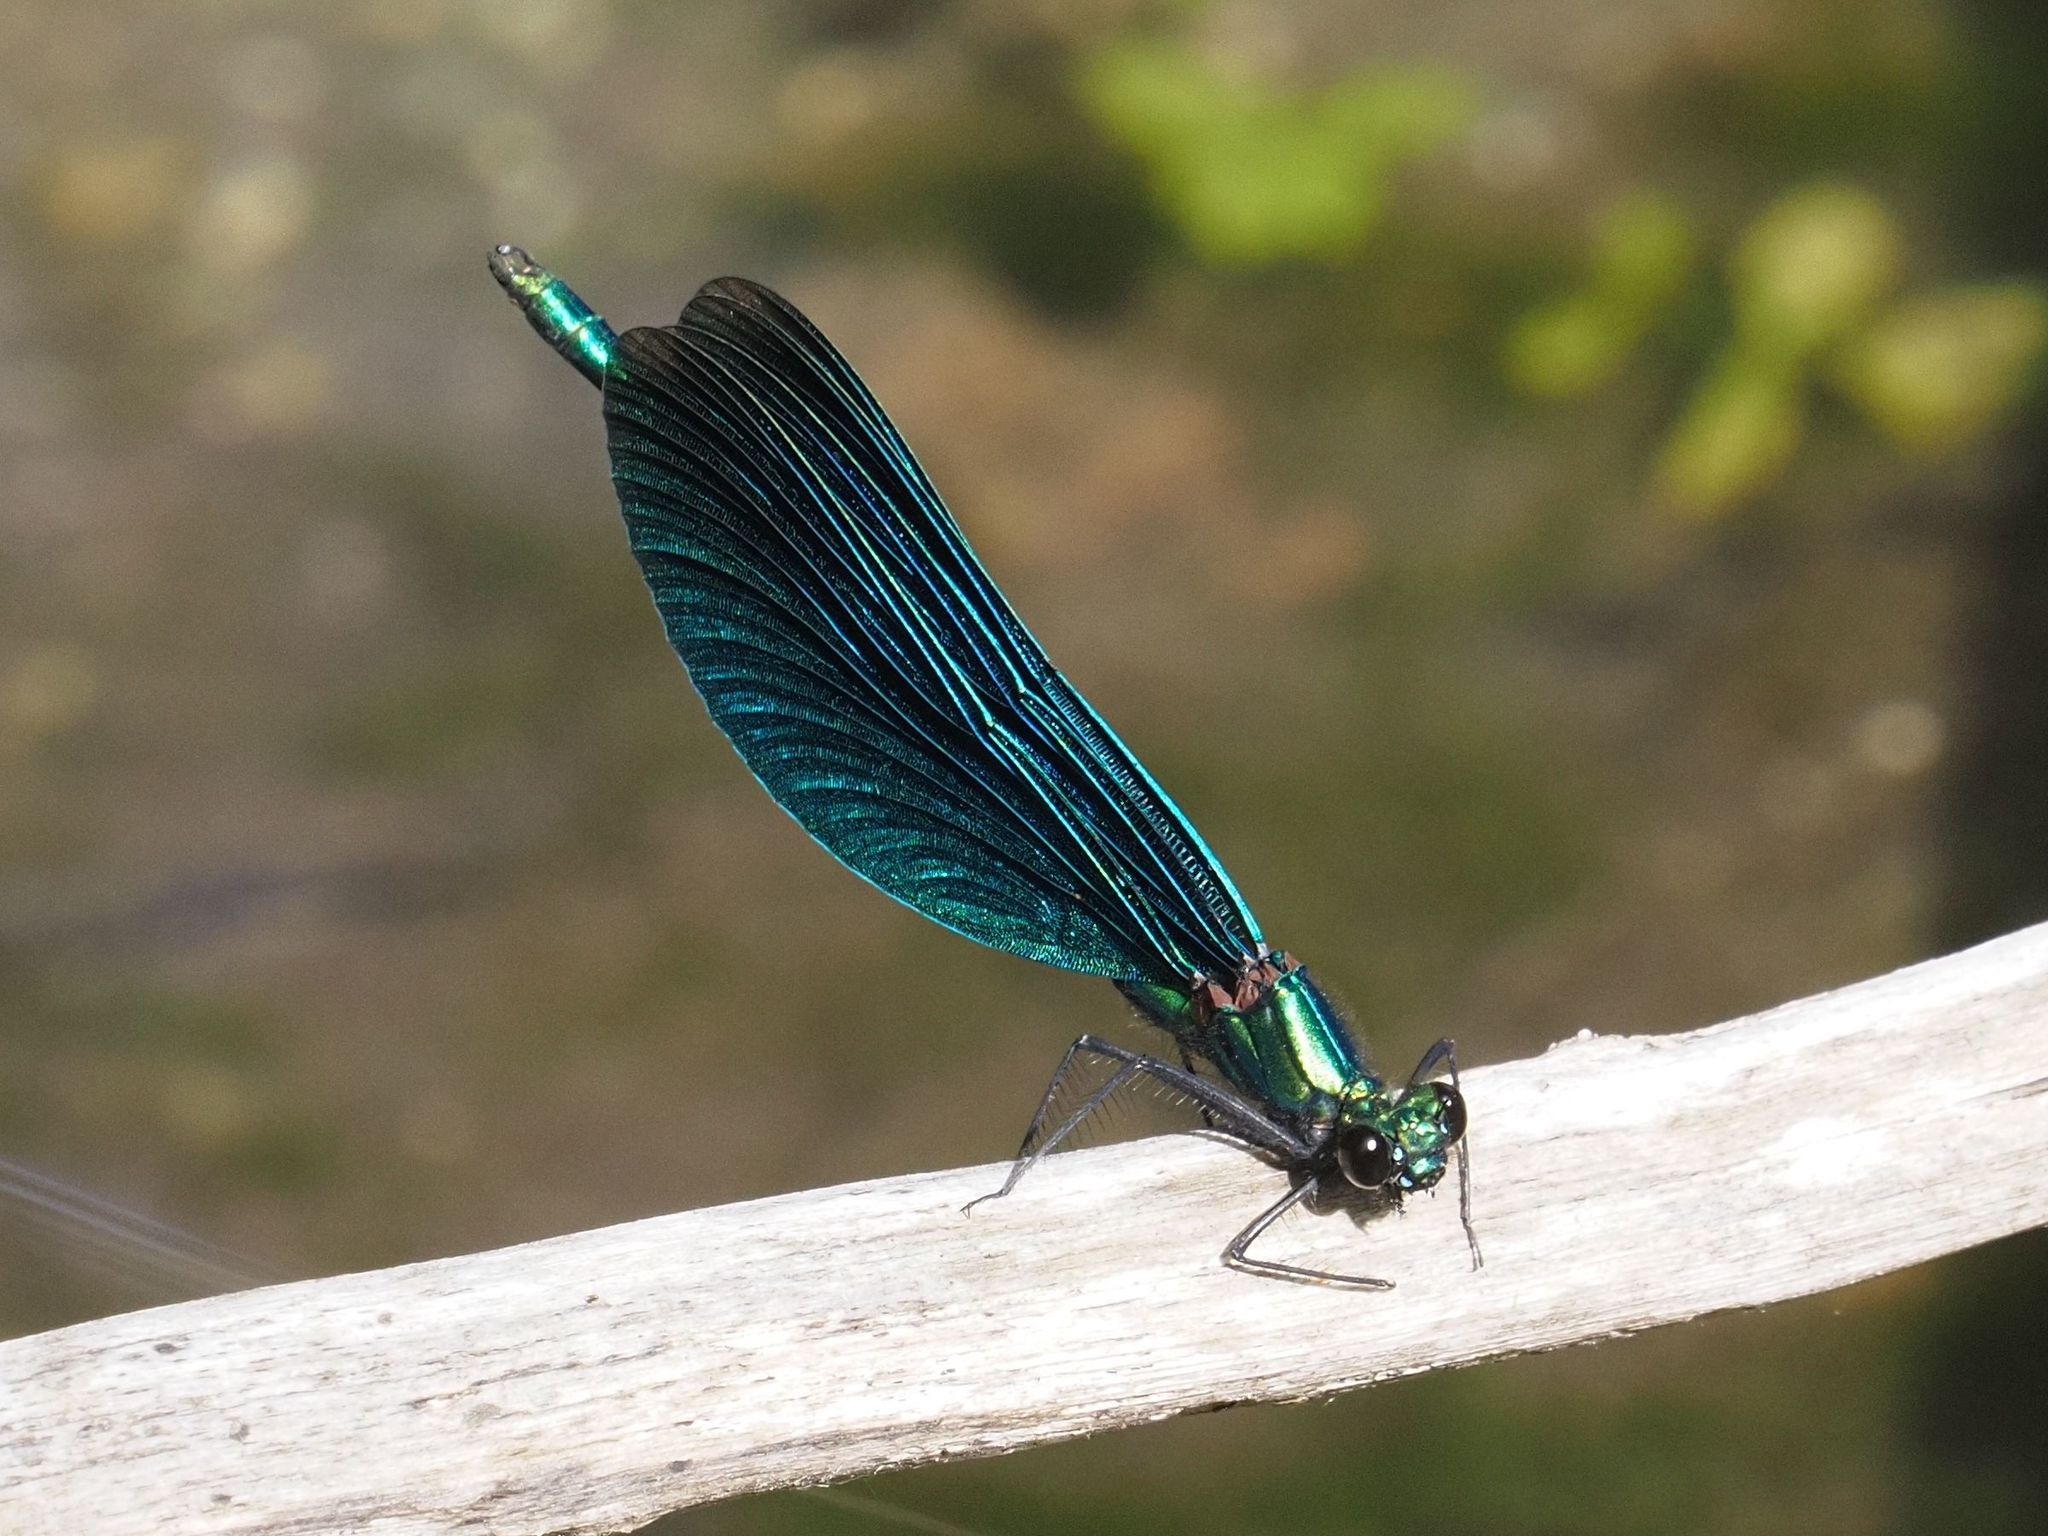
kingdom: Animalia
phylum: Arthropoda
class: Insecta
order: Odonata
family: Calopterygidae
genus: Calopteryx
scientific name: Calopteryx virgo
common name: Beautiful demoiselle
